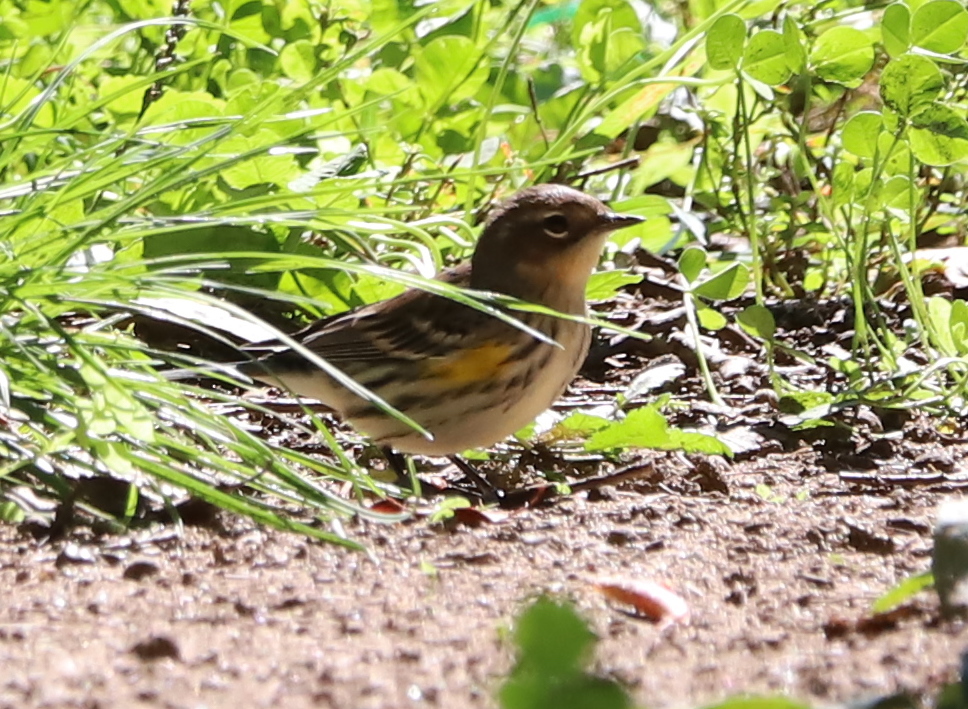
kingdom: Animalia
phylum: Chordata
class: Aves
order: Passeriformes
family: Parulidae
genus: Setophaga
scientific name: Setophaga coronata
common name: Myrtle warbler
